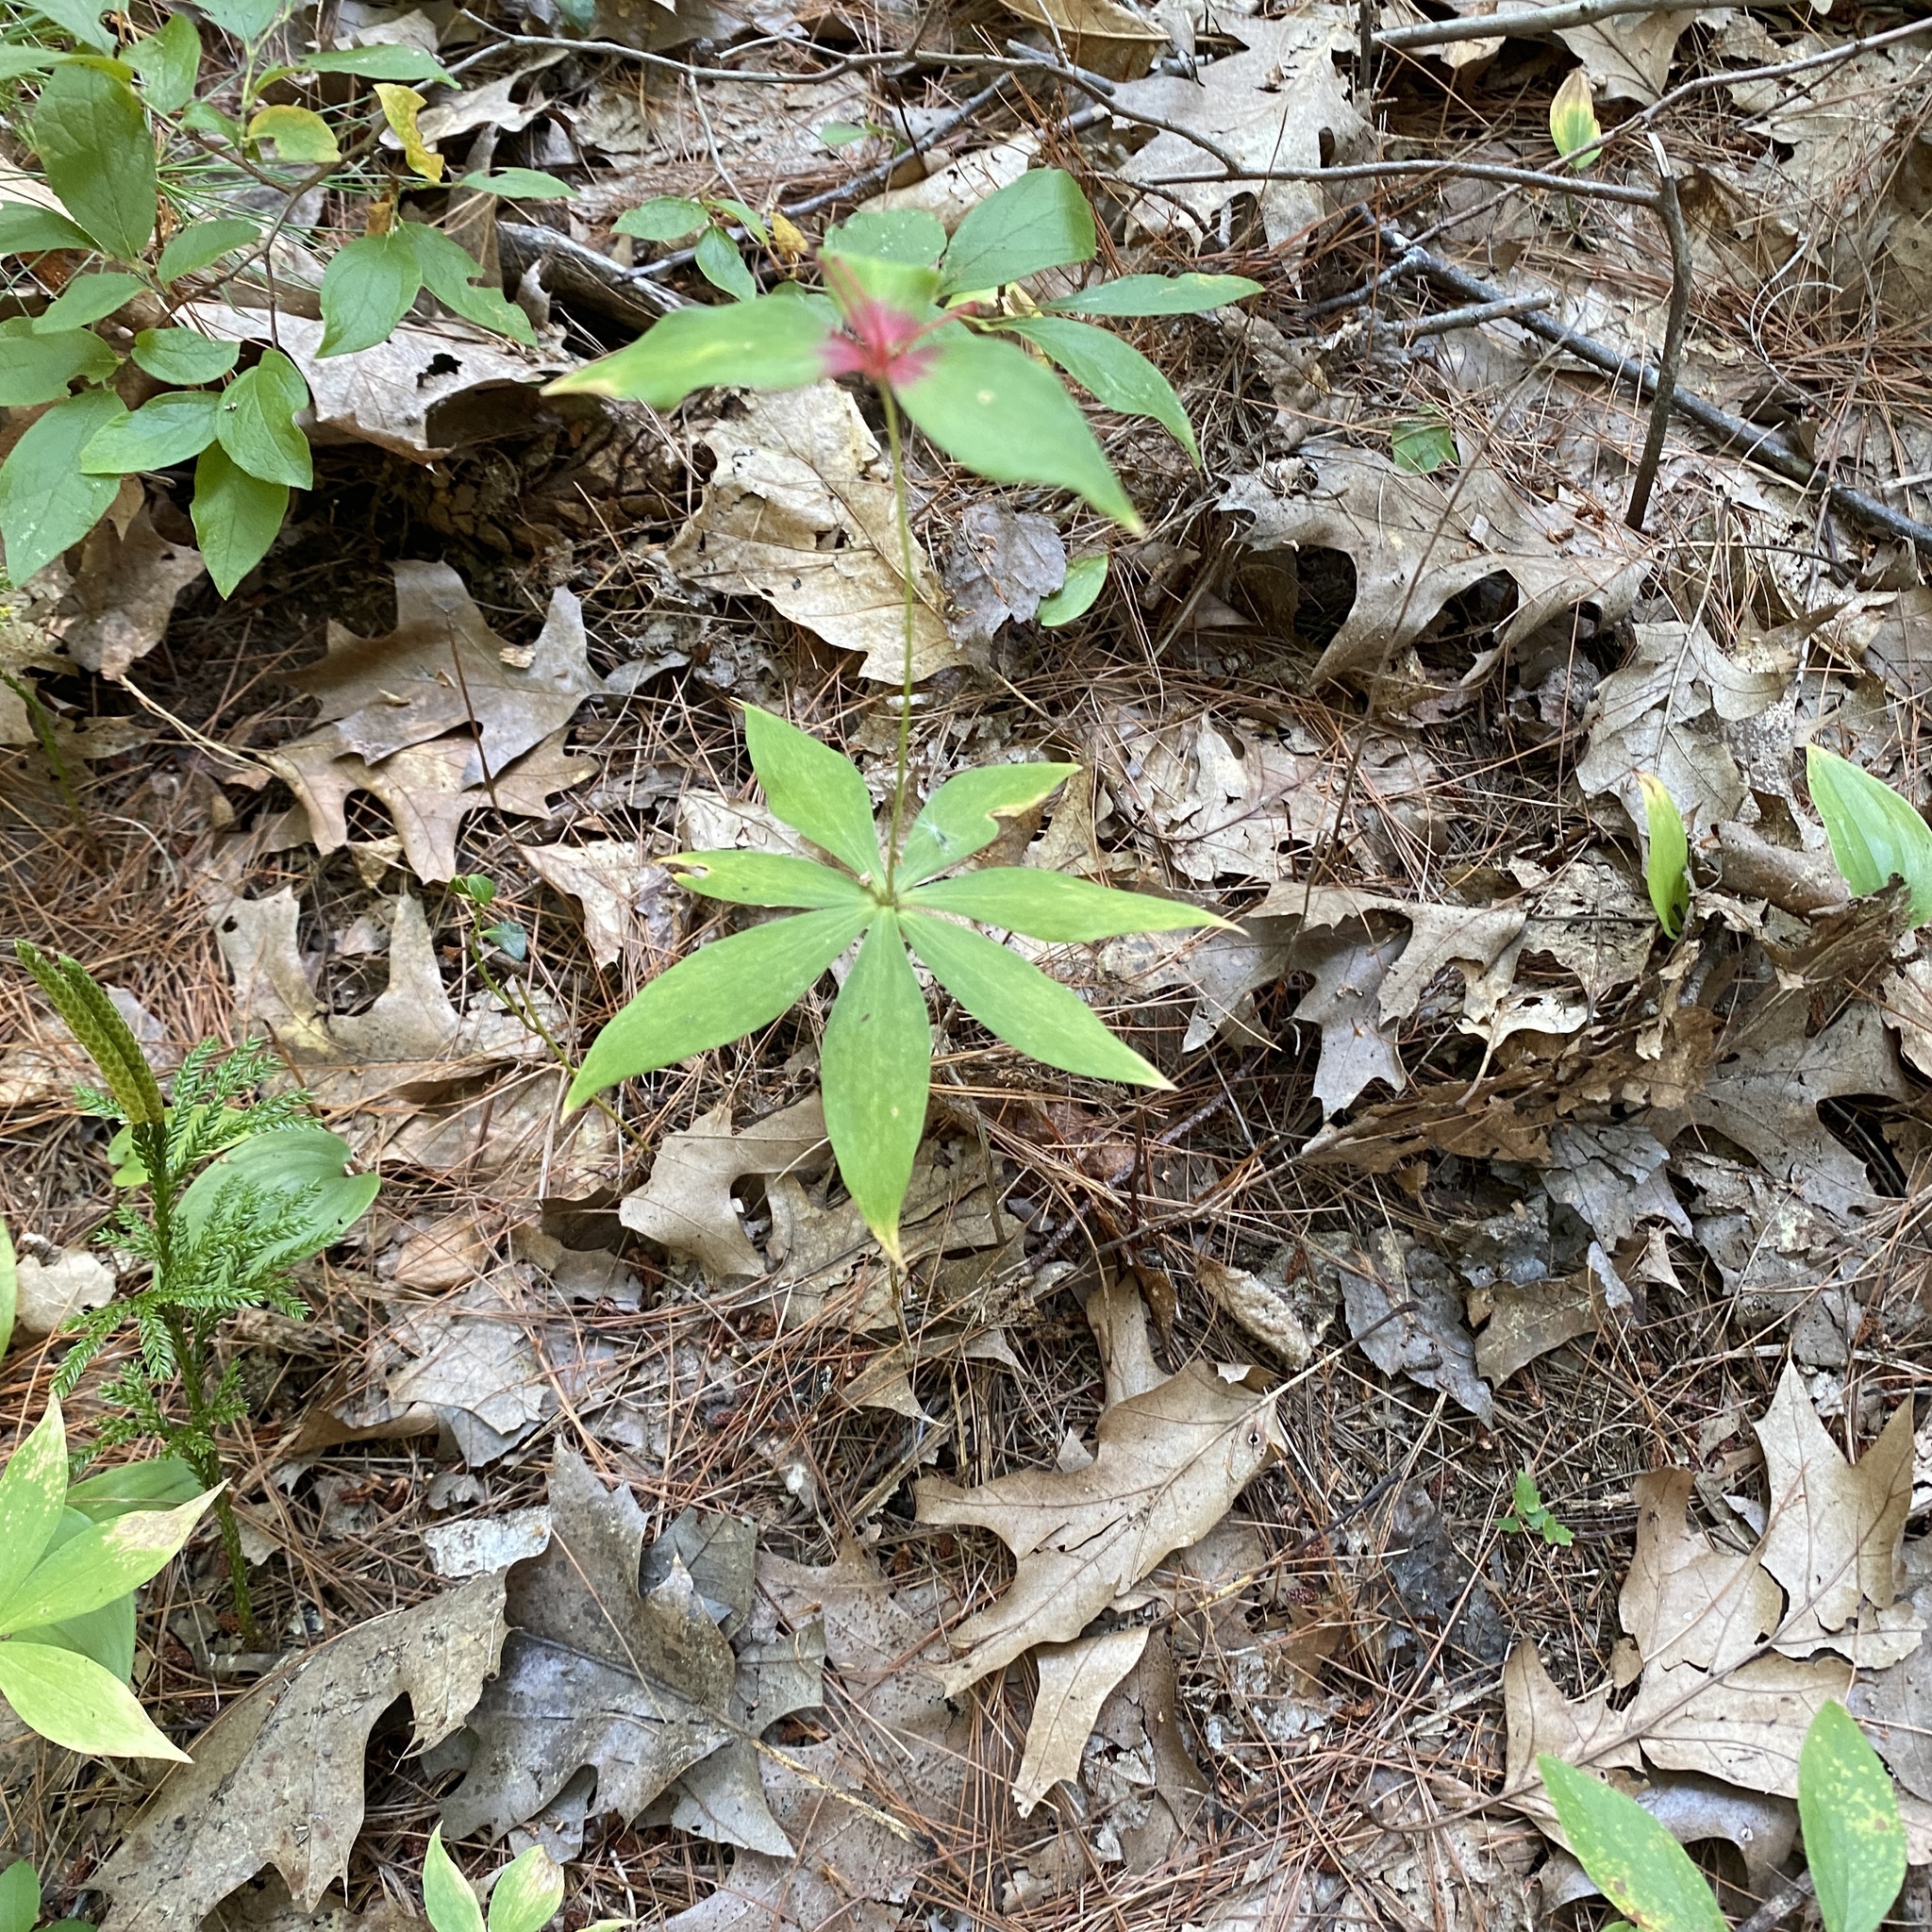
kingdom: Plantae
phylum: Tracheophyta
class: Liliopsida
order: Liliales
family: Liliaceae
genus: Medeola
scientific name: Medeola virginiana
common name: Indian cucumber-root
